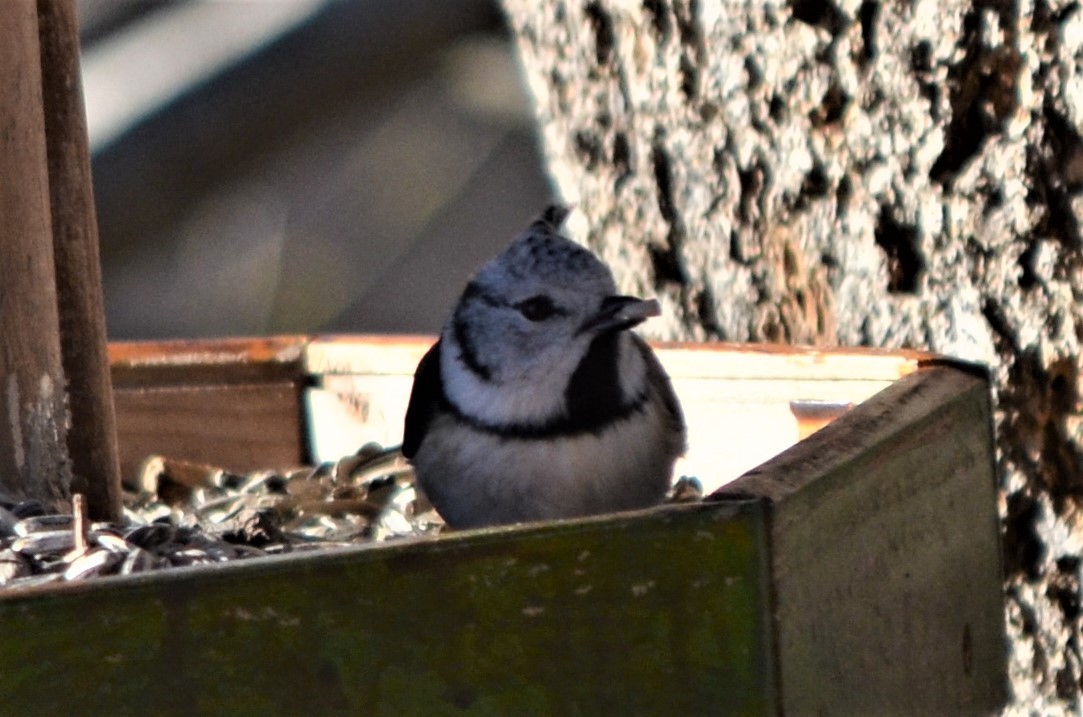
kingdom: Animalia
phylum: Chordata
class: Aves
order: Passeriformes
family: Paridae
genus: Lophophanes
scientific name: Lophophanes cristatus
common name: European crested tit
